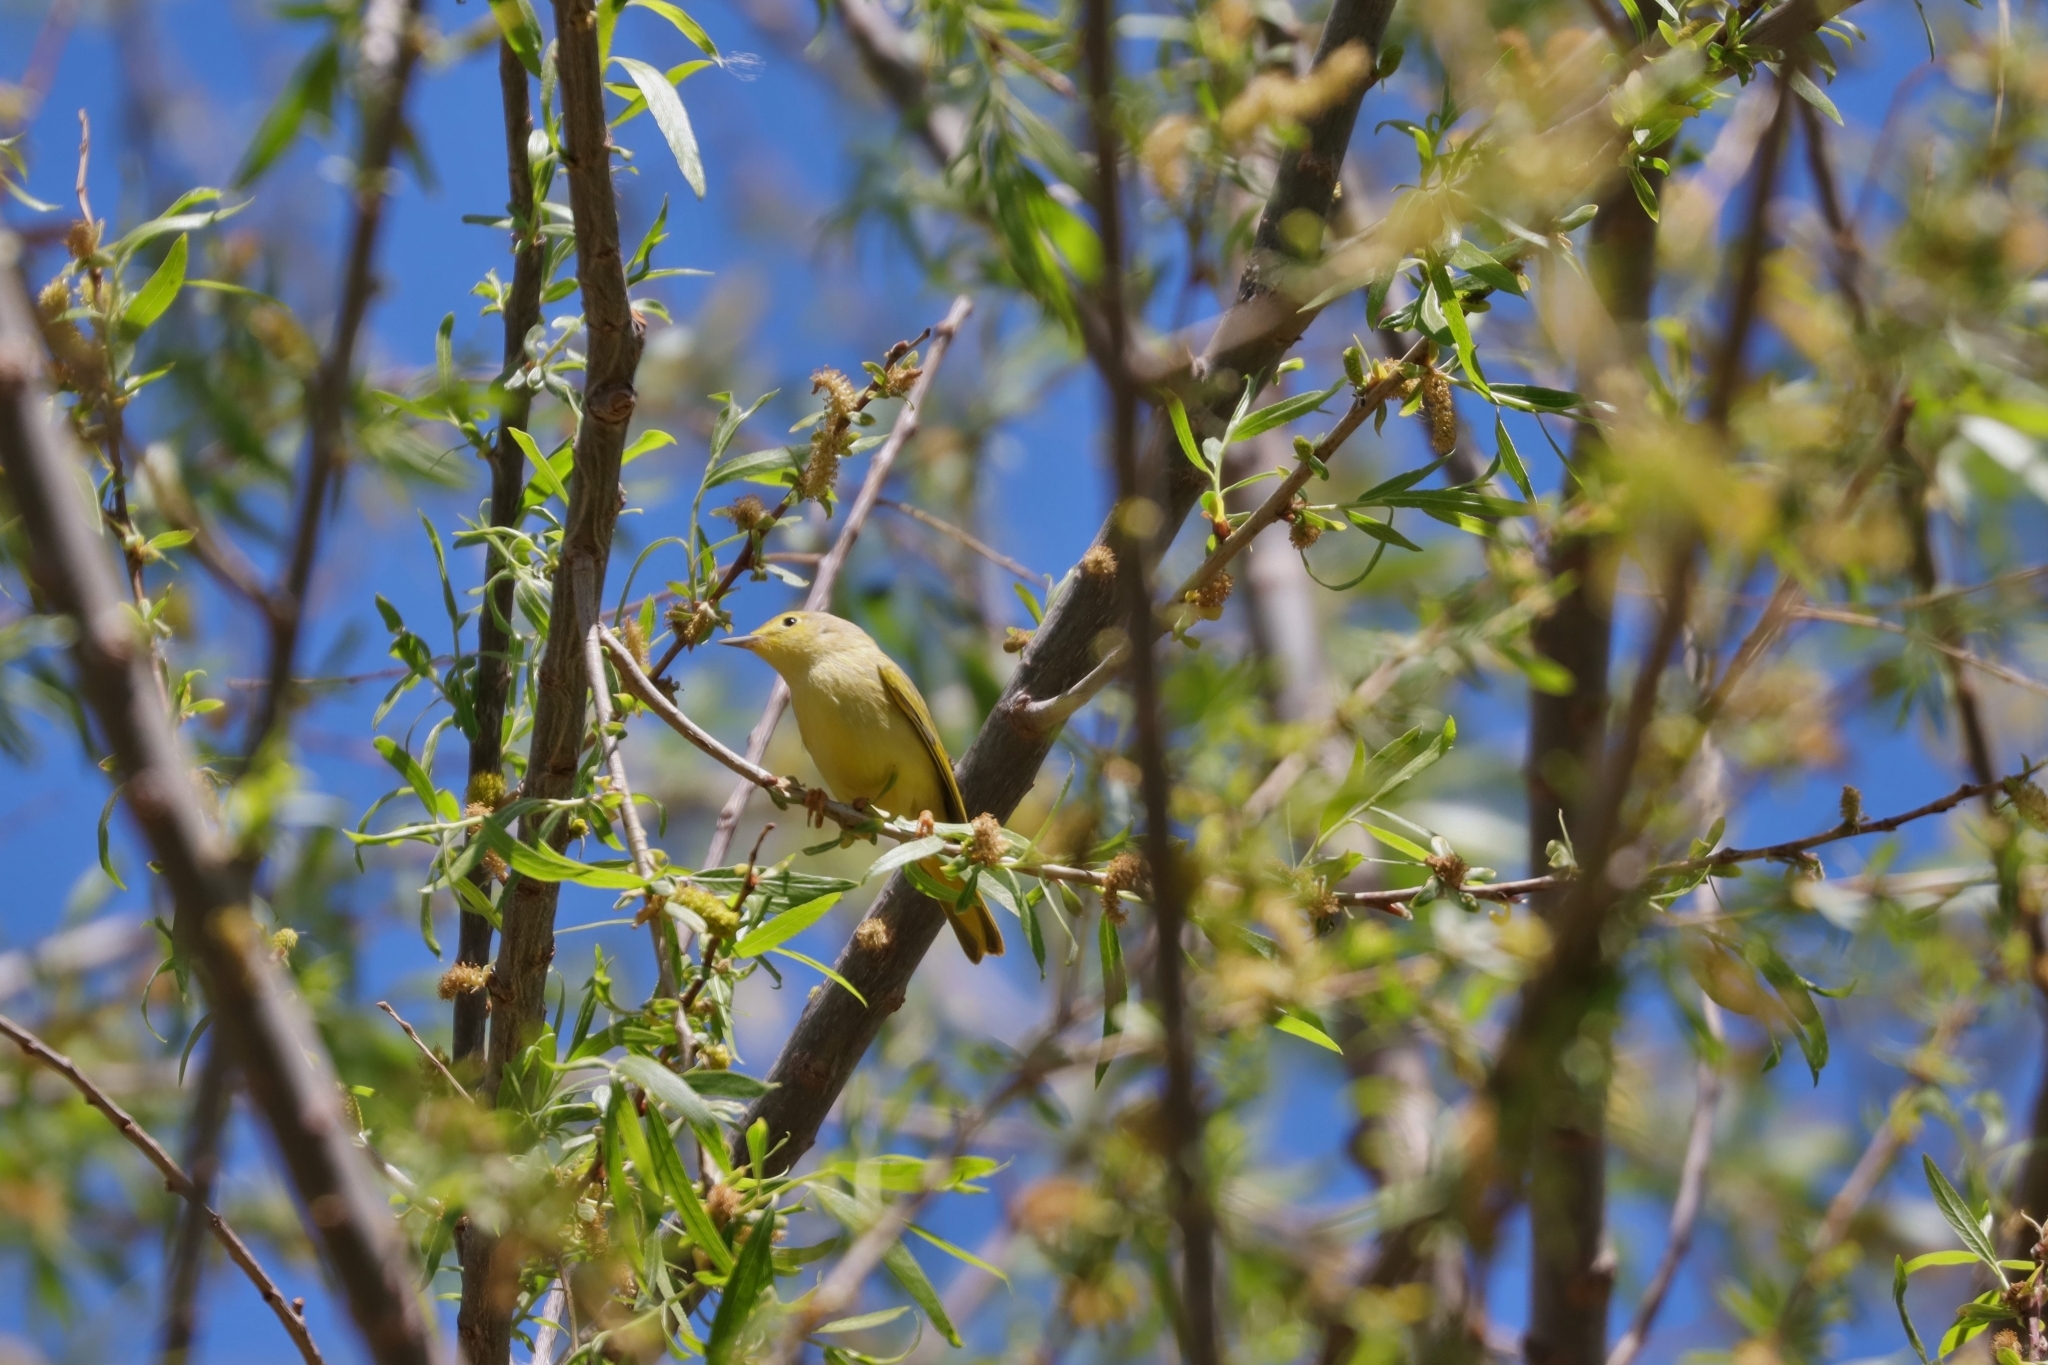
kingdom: Animalia
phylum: Chordata
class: Aves
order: Passeriformes
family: Parulidae
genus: Setophaga
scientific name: Setophaga petechia
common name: Yellow warbler
